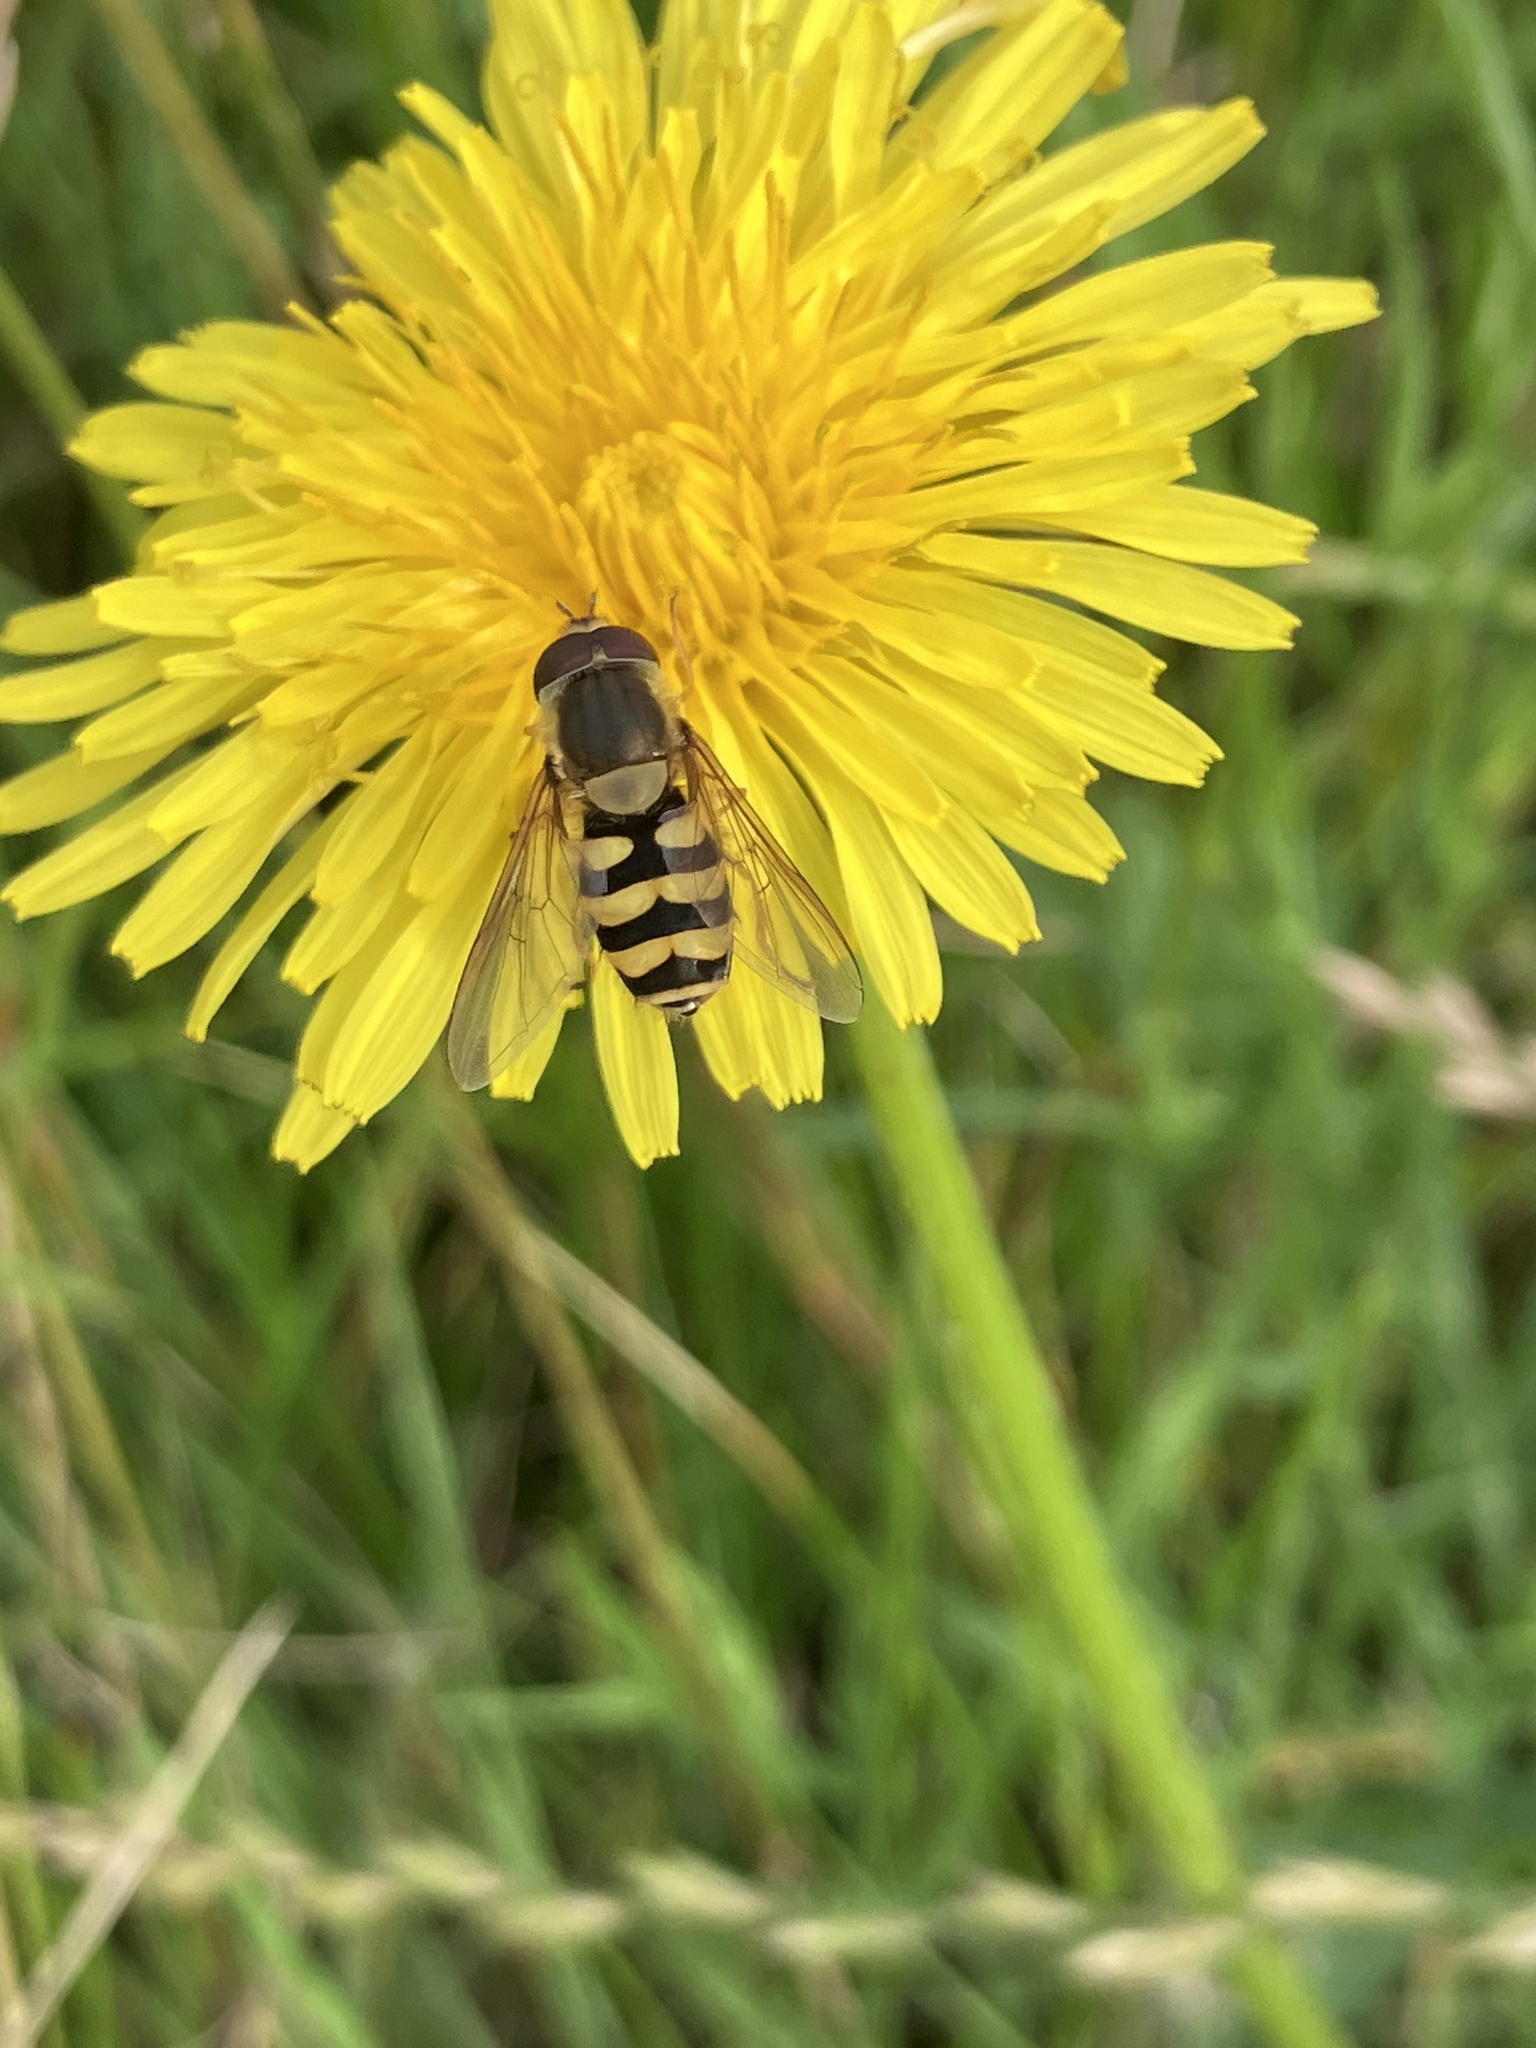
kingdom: Animalia
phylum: Arthropoda
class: Insecta
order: Diptera
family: Syrphidae
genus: Syrphus
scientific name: Syrphus
